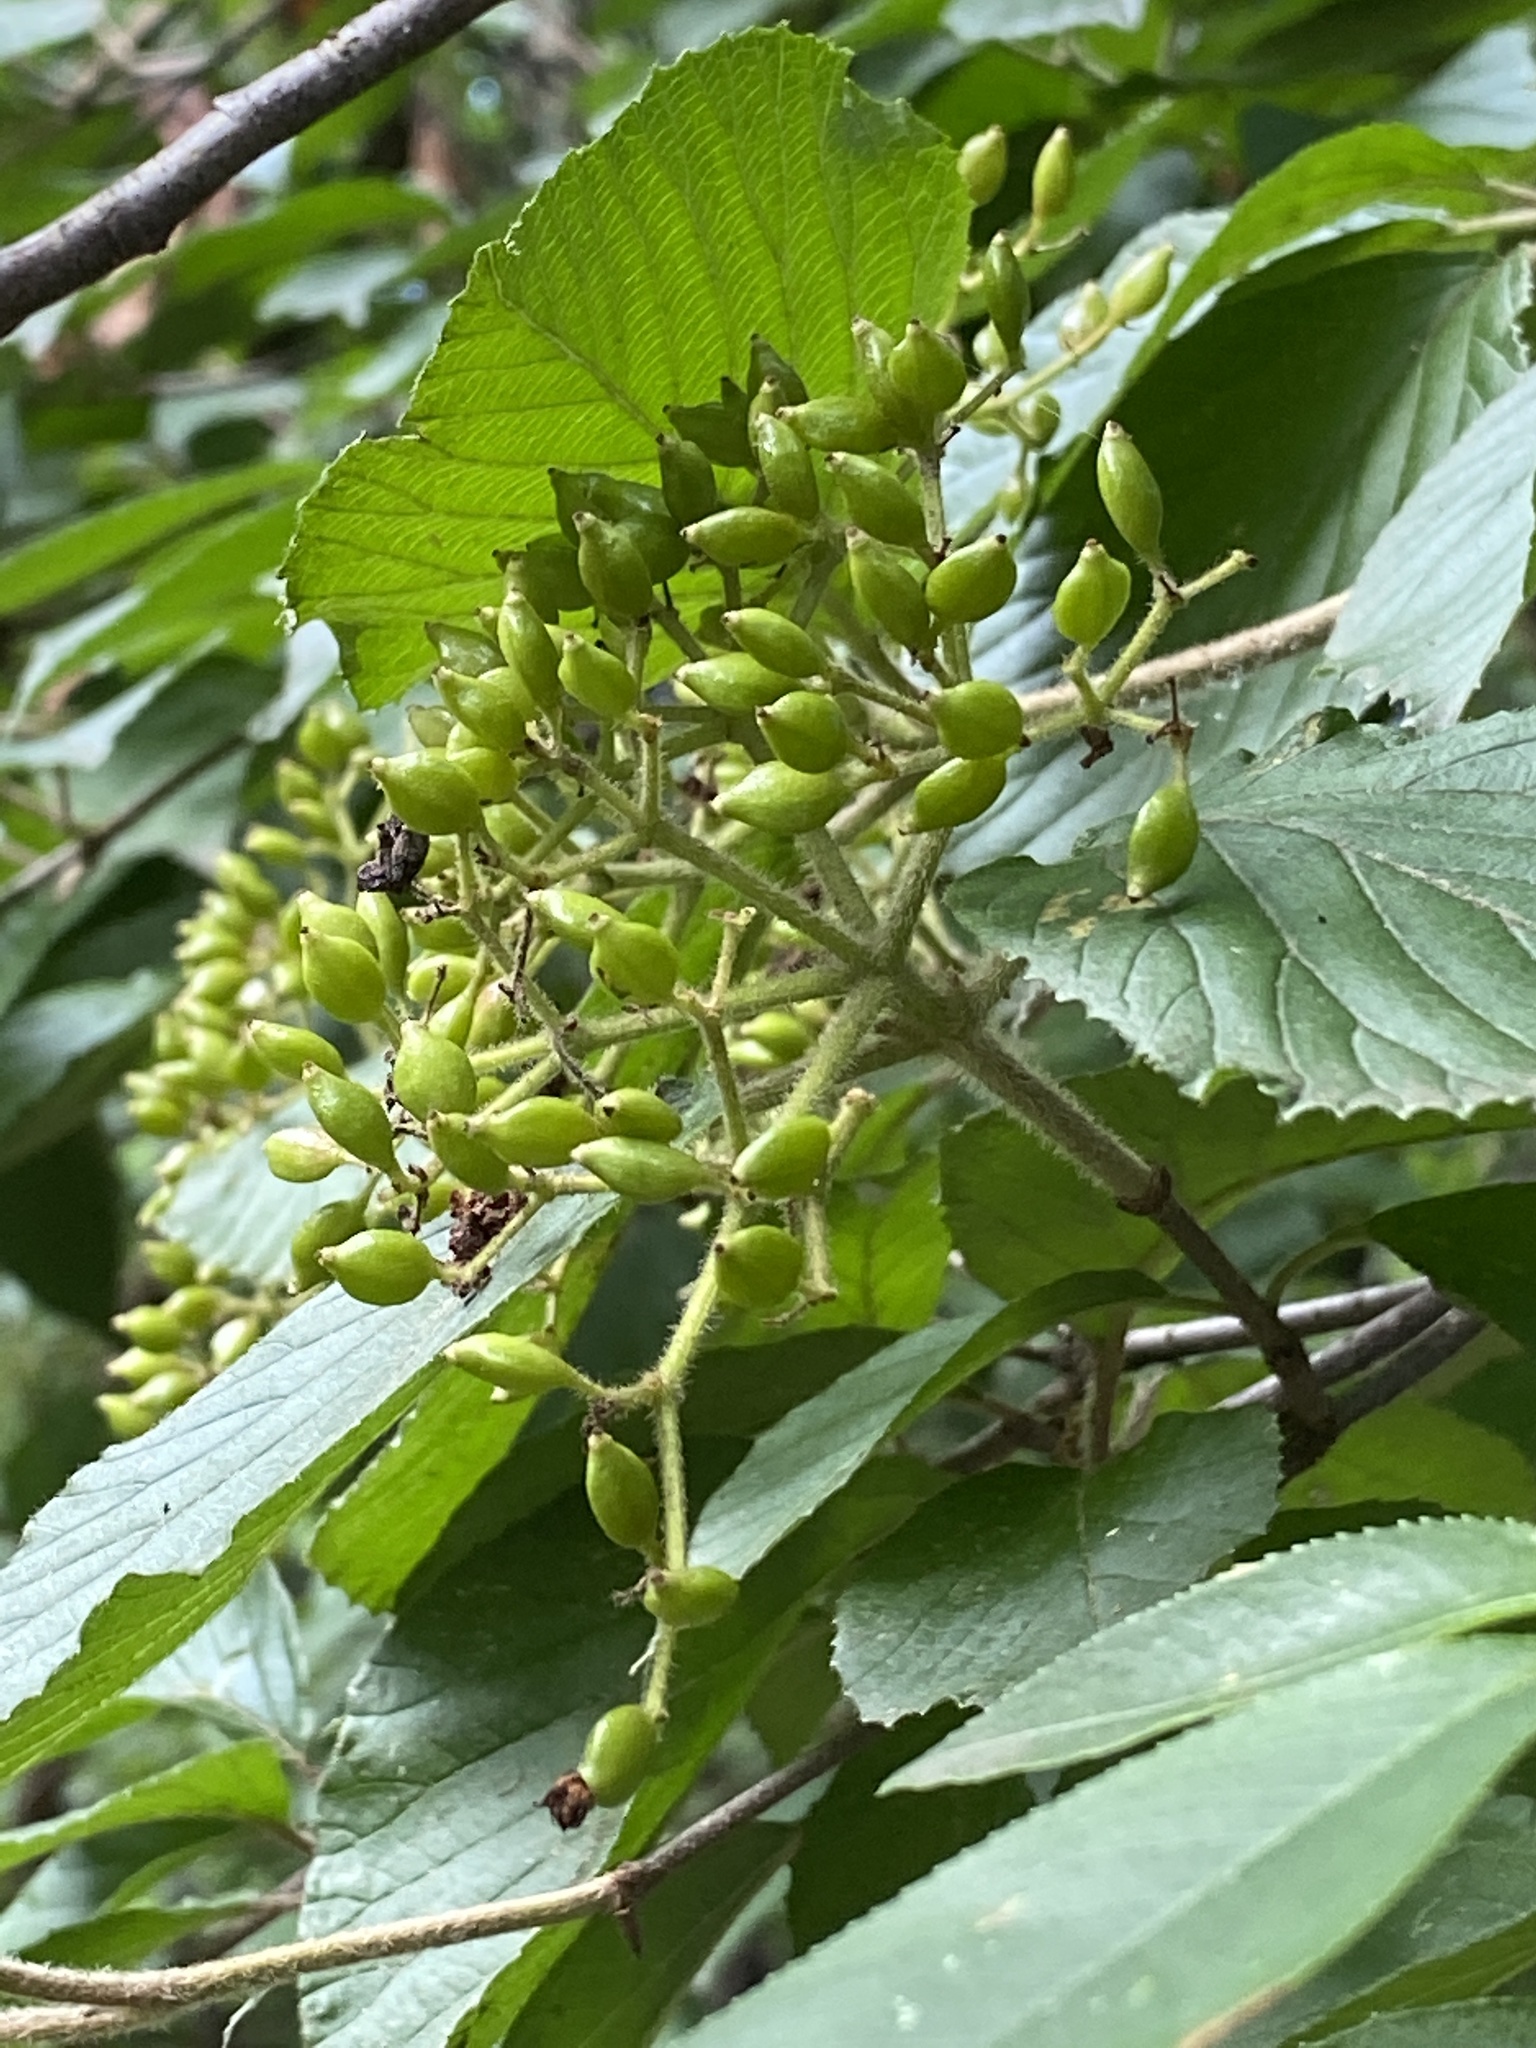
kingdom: Plantae
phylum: Tracheophyta
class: Magnoliopsida
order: Dipsacales
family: Viburnaceae
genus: Viburnum
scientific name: Viburnum dilatatum
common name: Linden arrowwood
